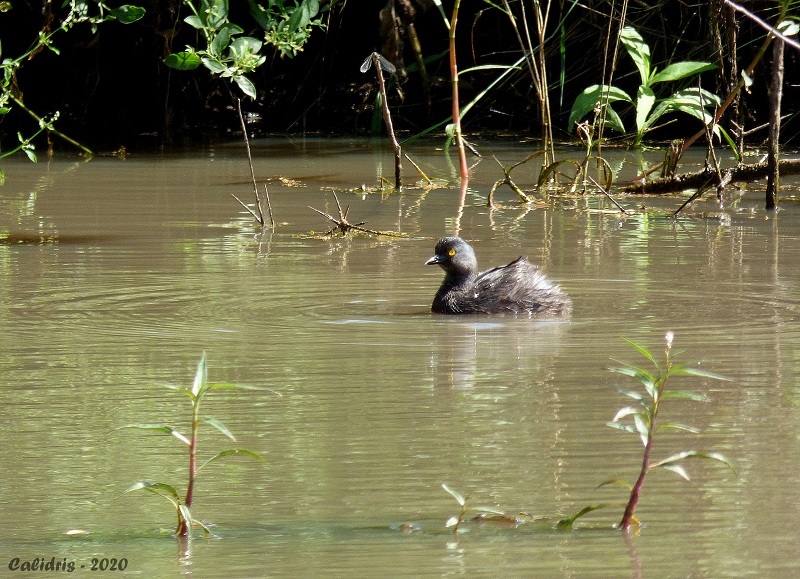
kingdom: Animalia
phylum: Chordata
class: Aves
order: Podicipediformes
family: Podicipedidae
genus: Tachybaptus
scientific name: Tachybaptus dominicus
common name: Least grebe
